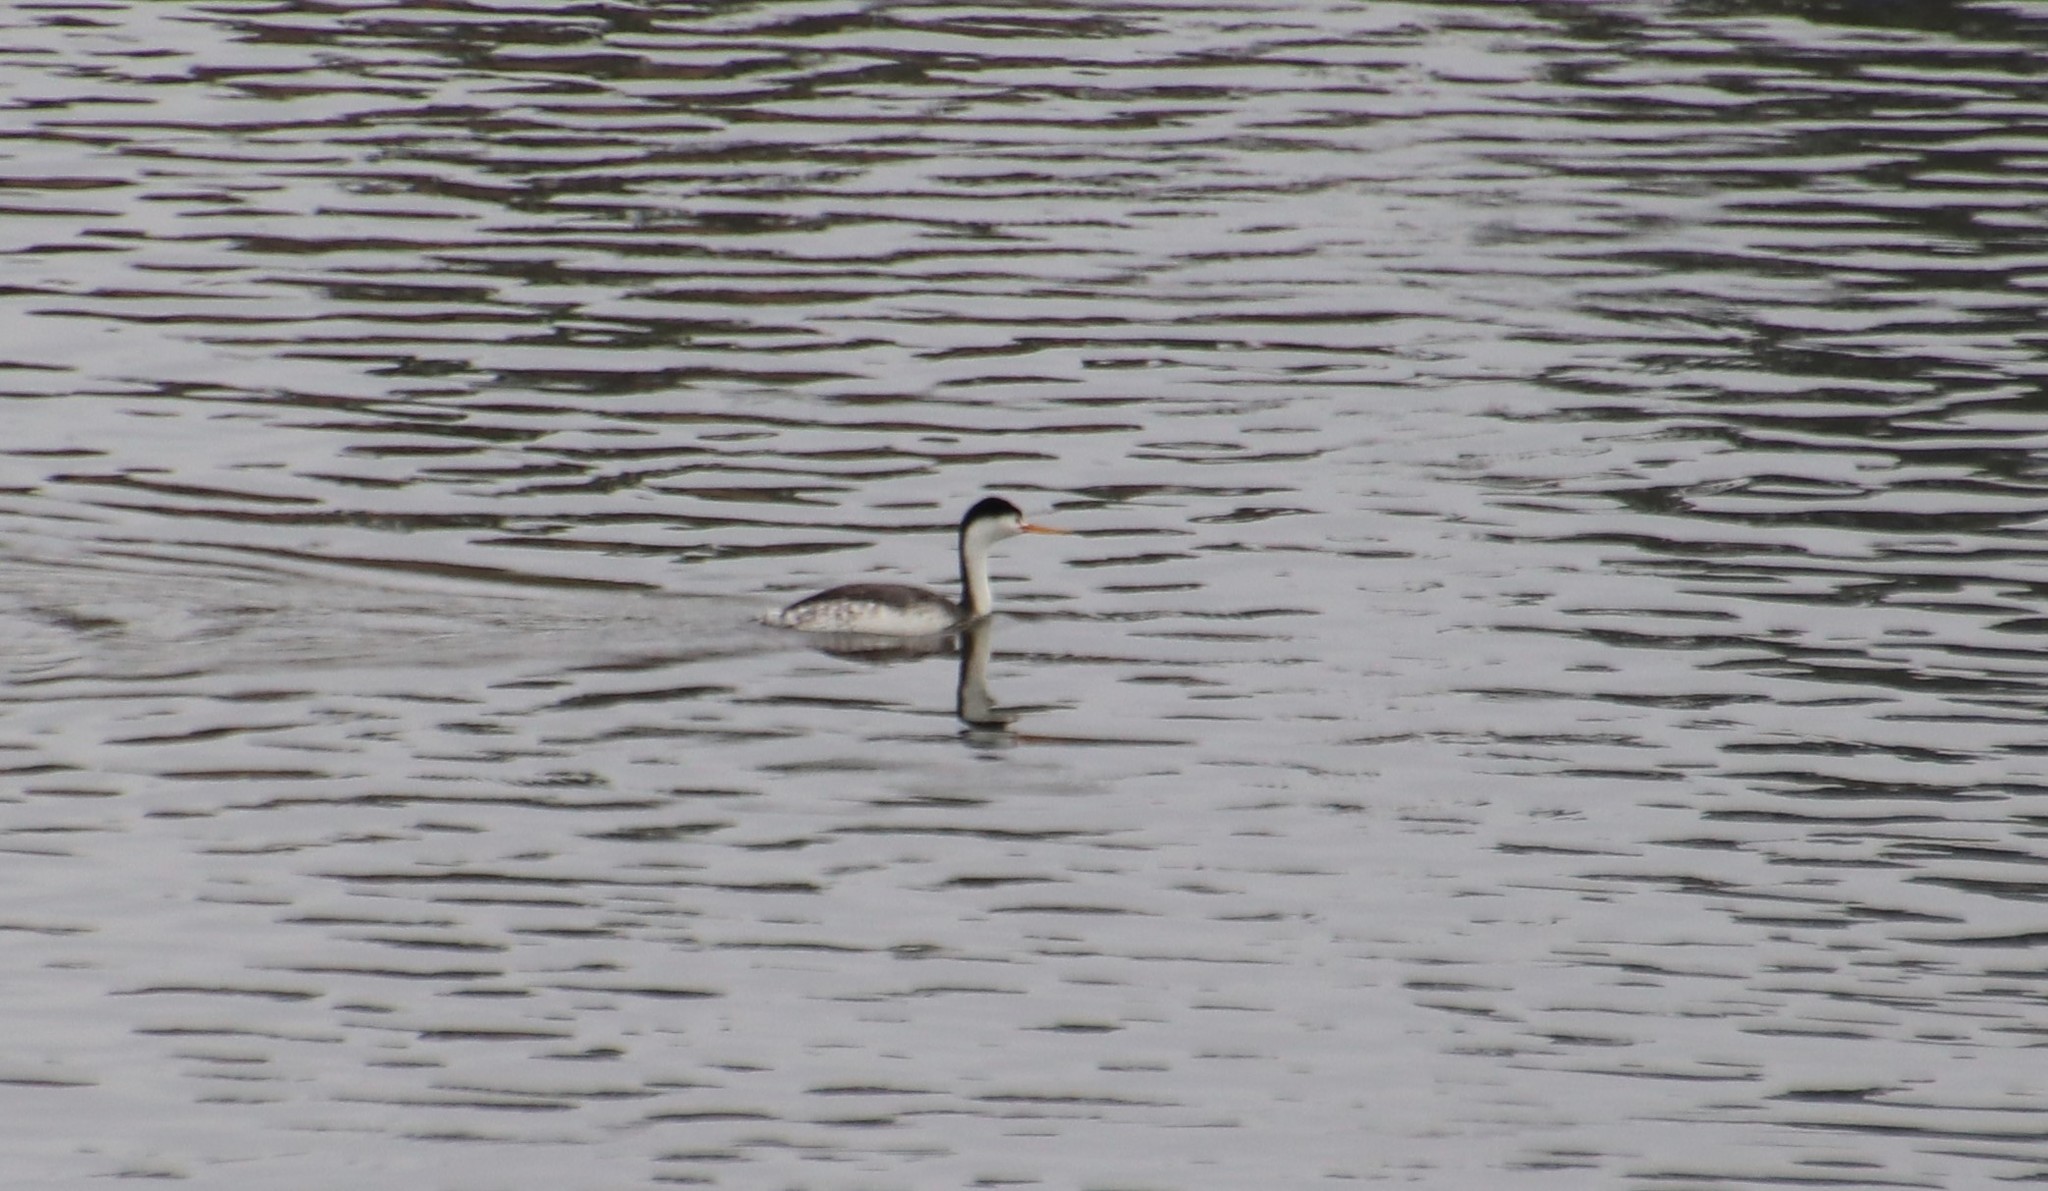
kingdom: Animalia
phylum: Chordata
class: Aves
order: Podicipediformes
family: Podicipedidae
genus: Aechmophorus
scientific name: Aechmophorus clarkii
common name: Clark's grebe
